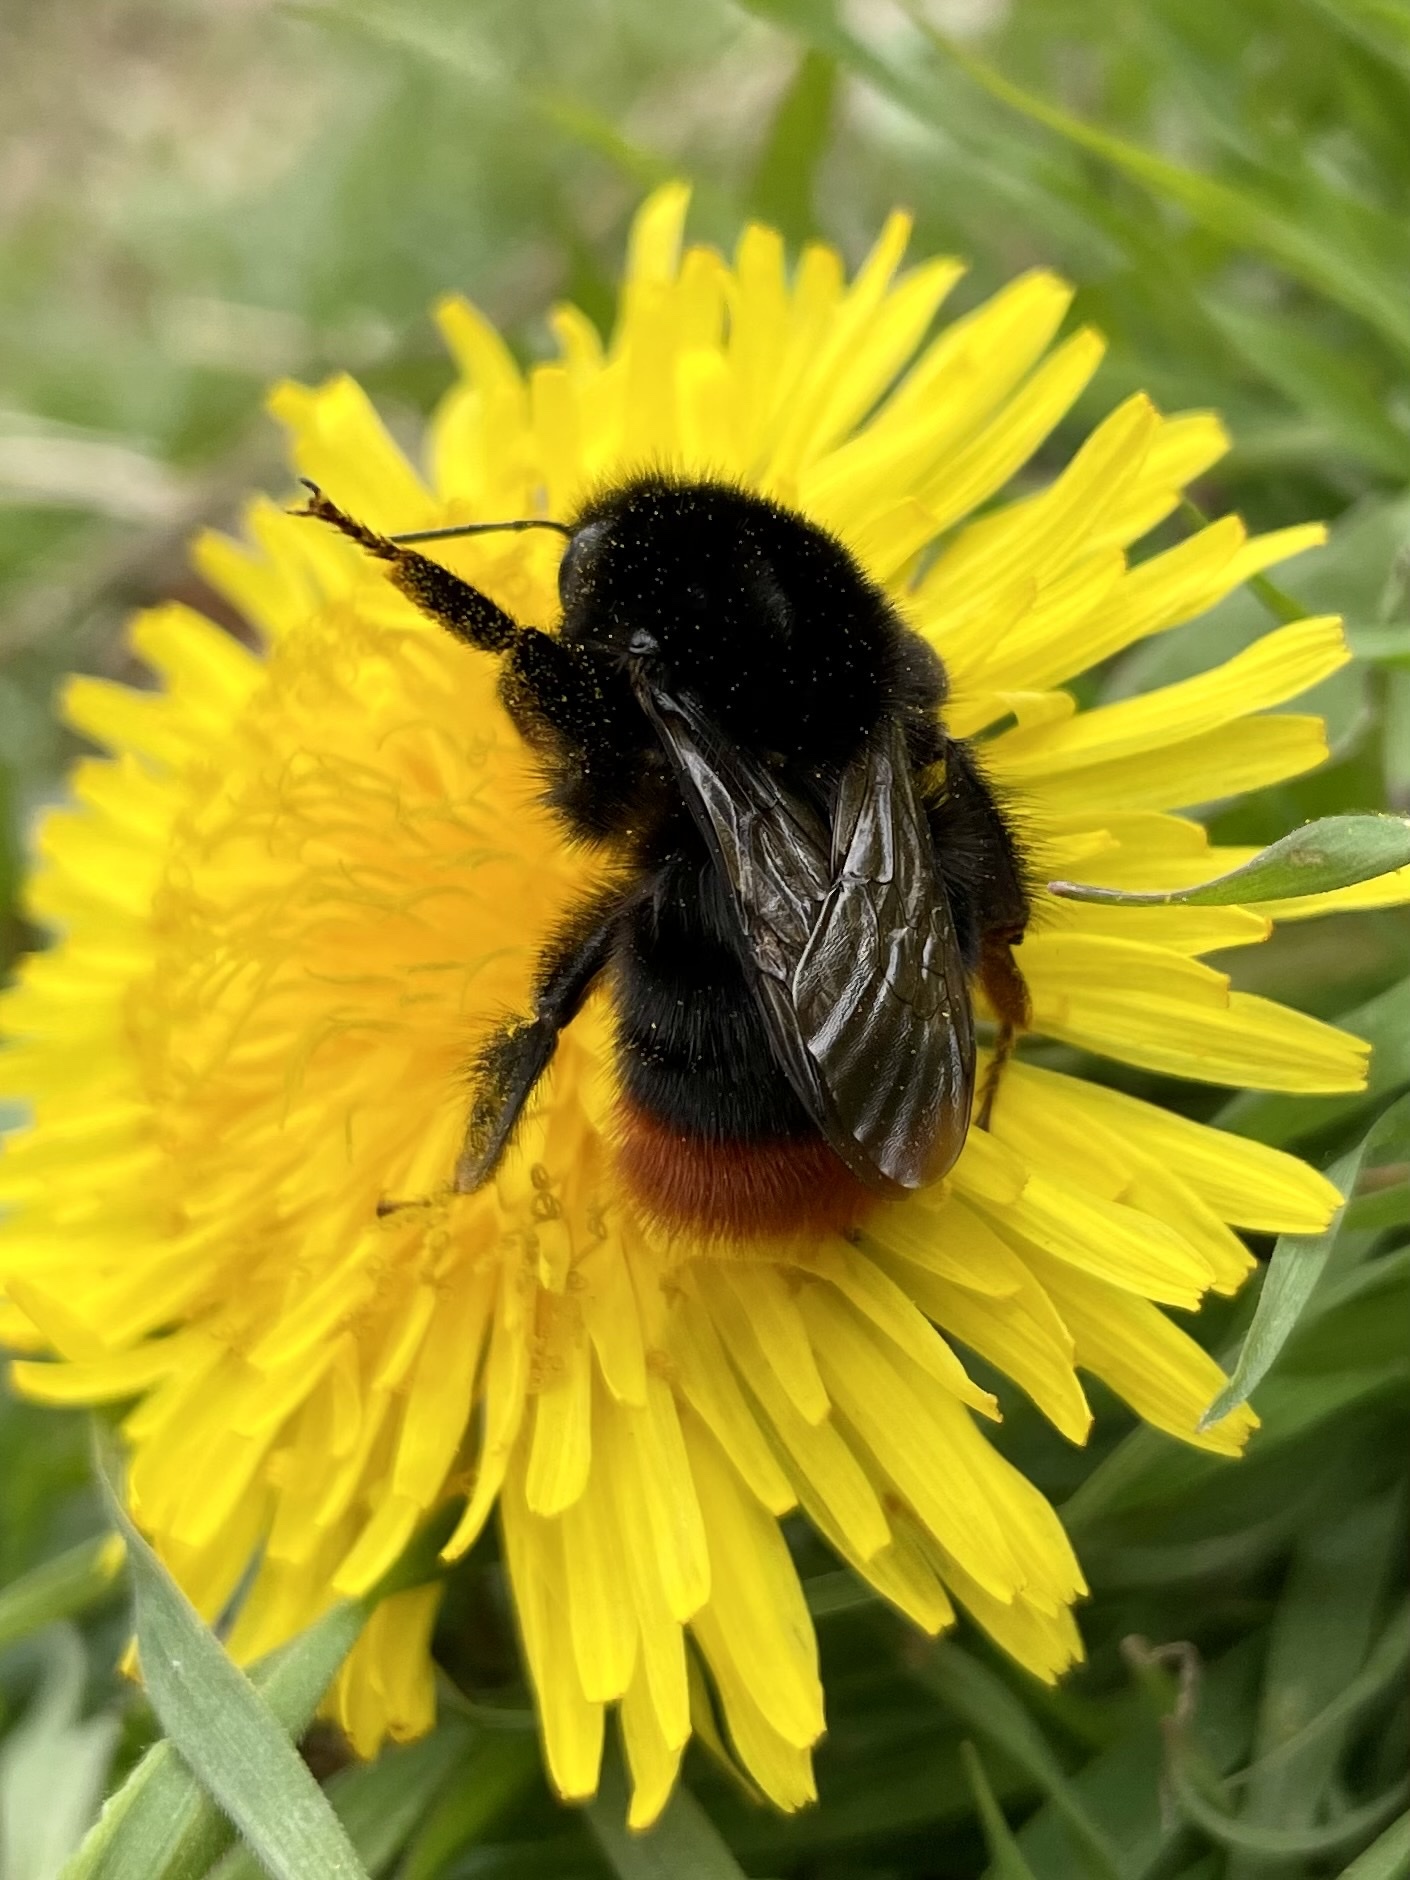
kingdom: Animalia
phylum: Arthropoda
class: Insecta
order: Hymenoptera
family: Apidae
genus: Bombus
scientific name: Bombus lapidarius
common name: Large red-tailed humble-bee
